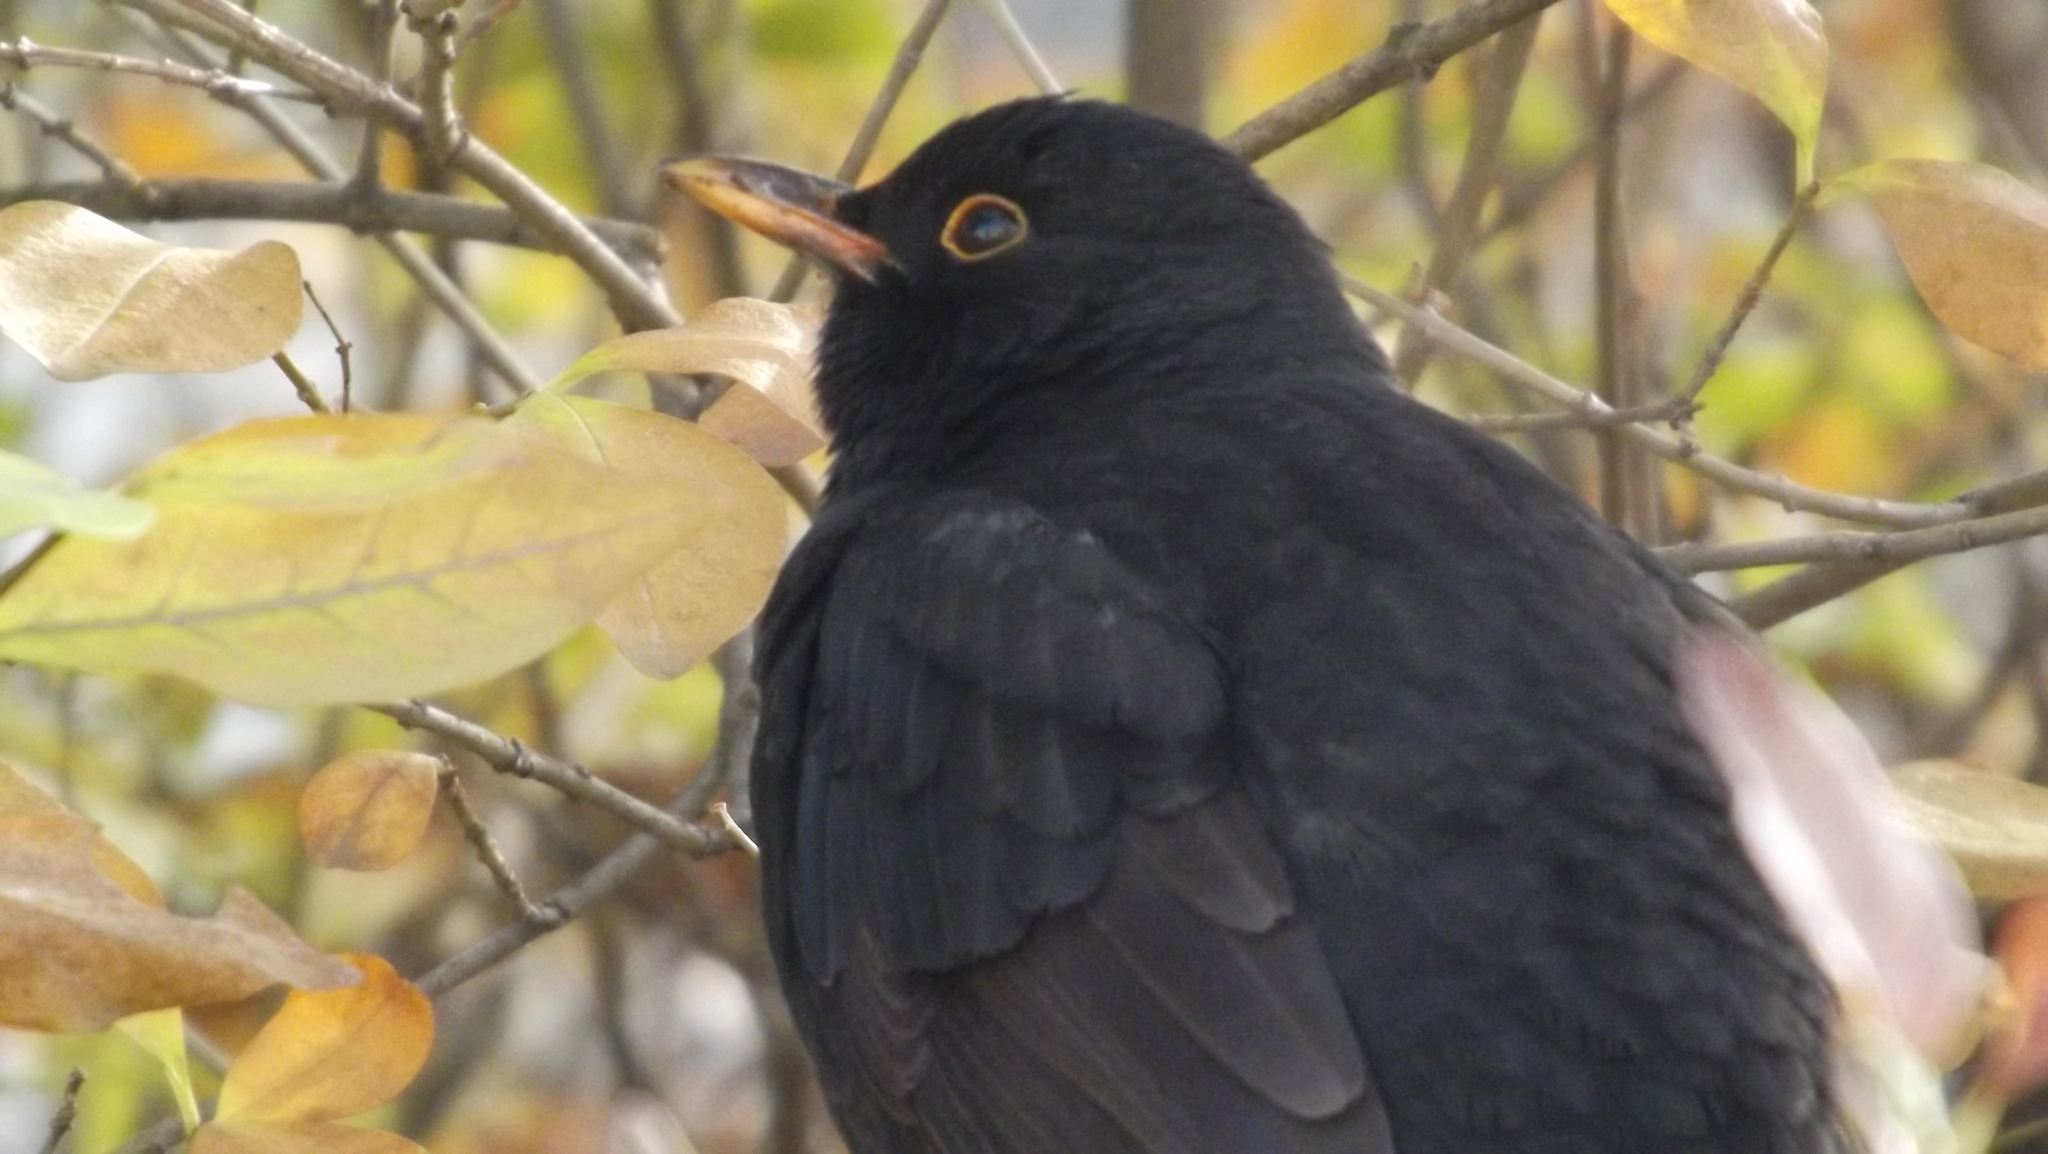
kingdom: Animalia
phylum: Chordata
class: Aves
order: Passeriformes
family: Turdidae
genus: Turdus
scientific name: Turdus merula
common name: Common blackbird
